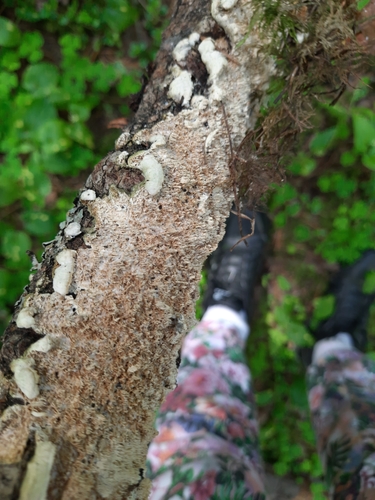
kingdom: Fungi
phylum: Basidiomycota
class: Agaricomycetes
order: Polyporales
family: Irpicaceae
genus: Irpex
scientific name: Irpex lacteus
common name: Milk-white toothed polypore
